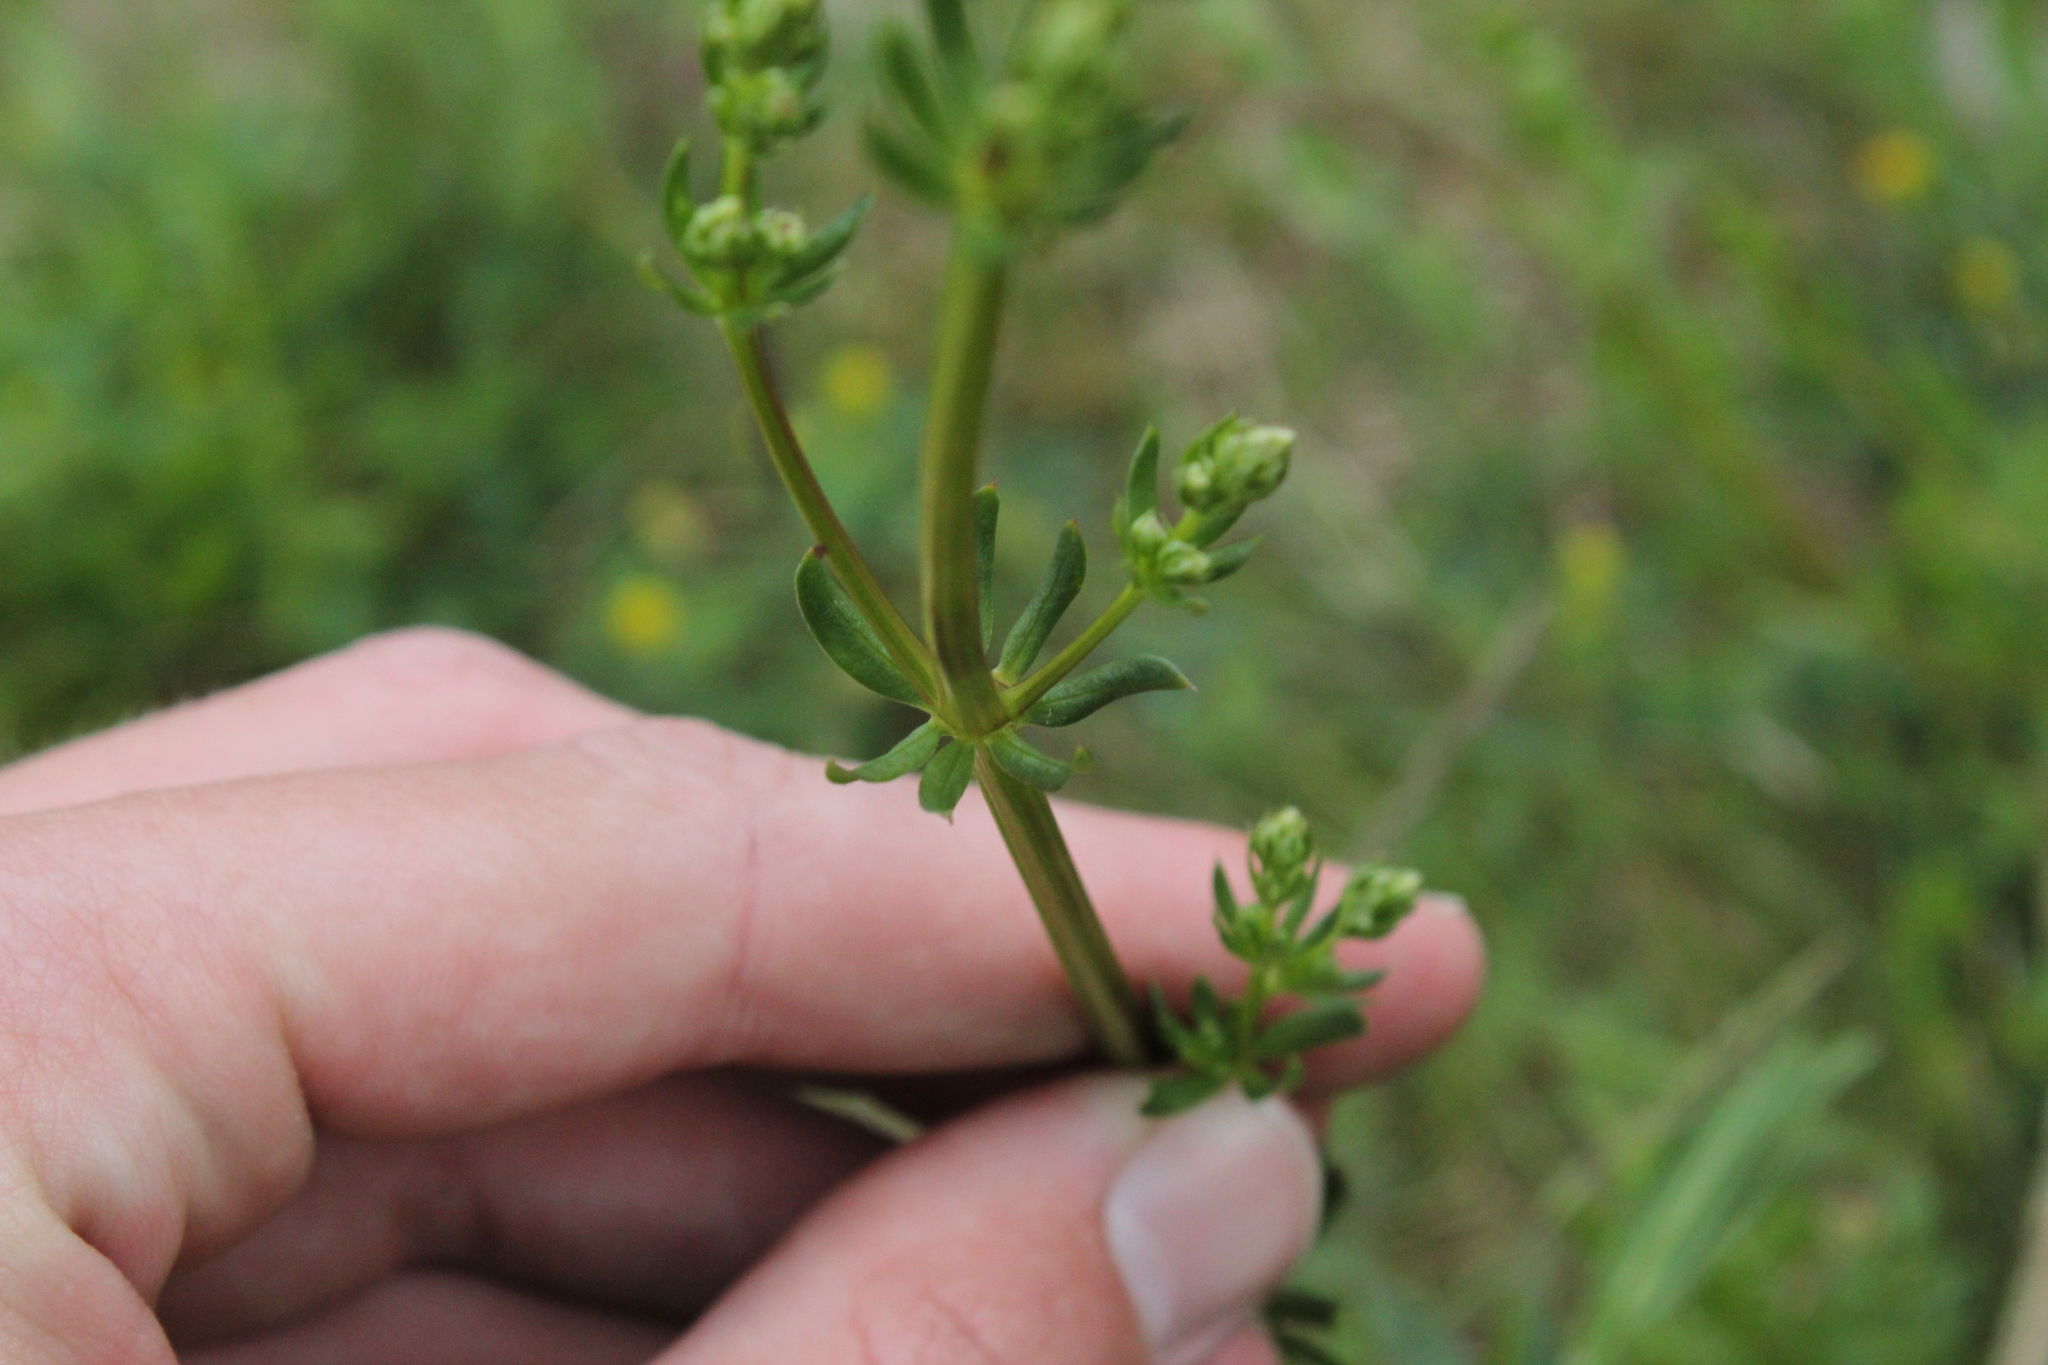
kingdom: Plantae
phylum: Tracheophyta
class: Magnoliopsida
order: Gentianales
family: Rubiaceae
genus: Galium
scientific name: Galium album
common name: White bedstraw
